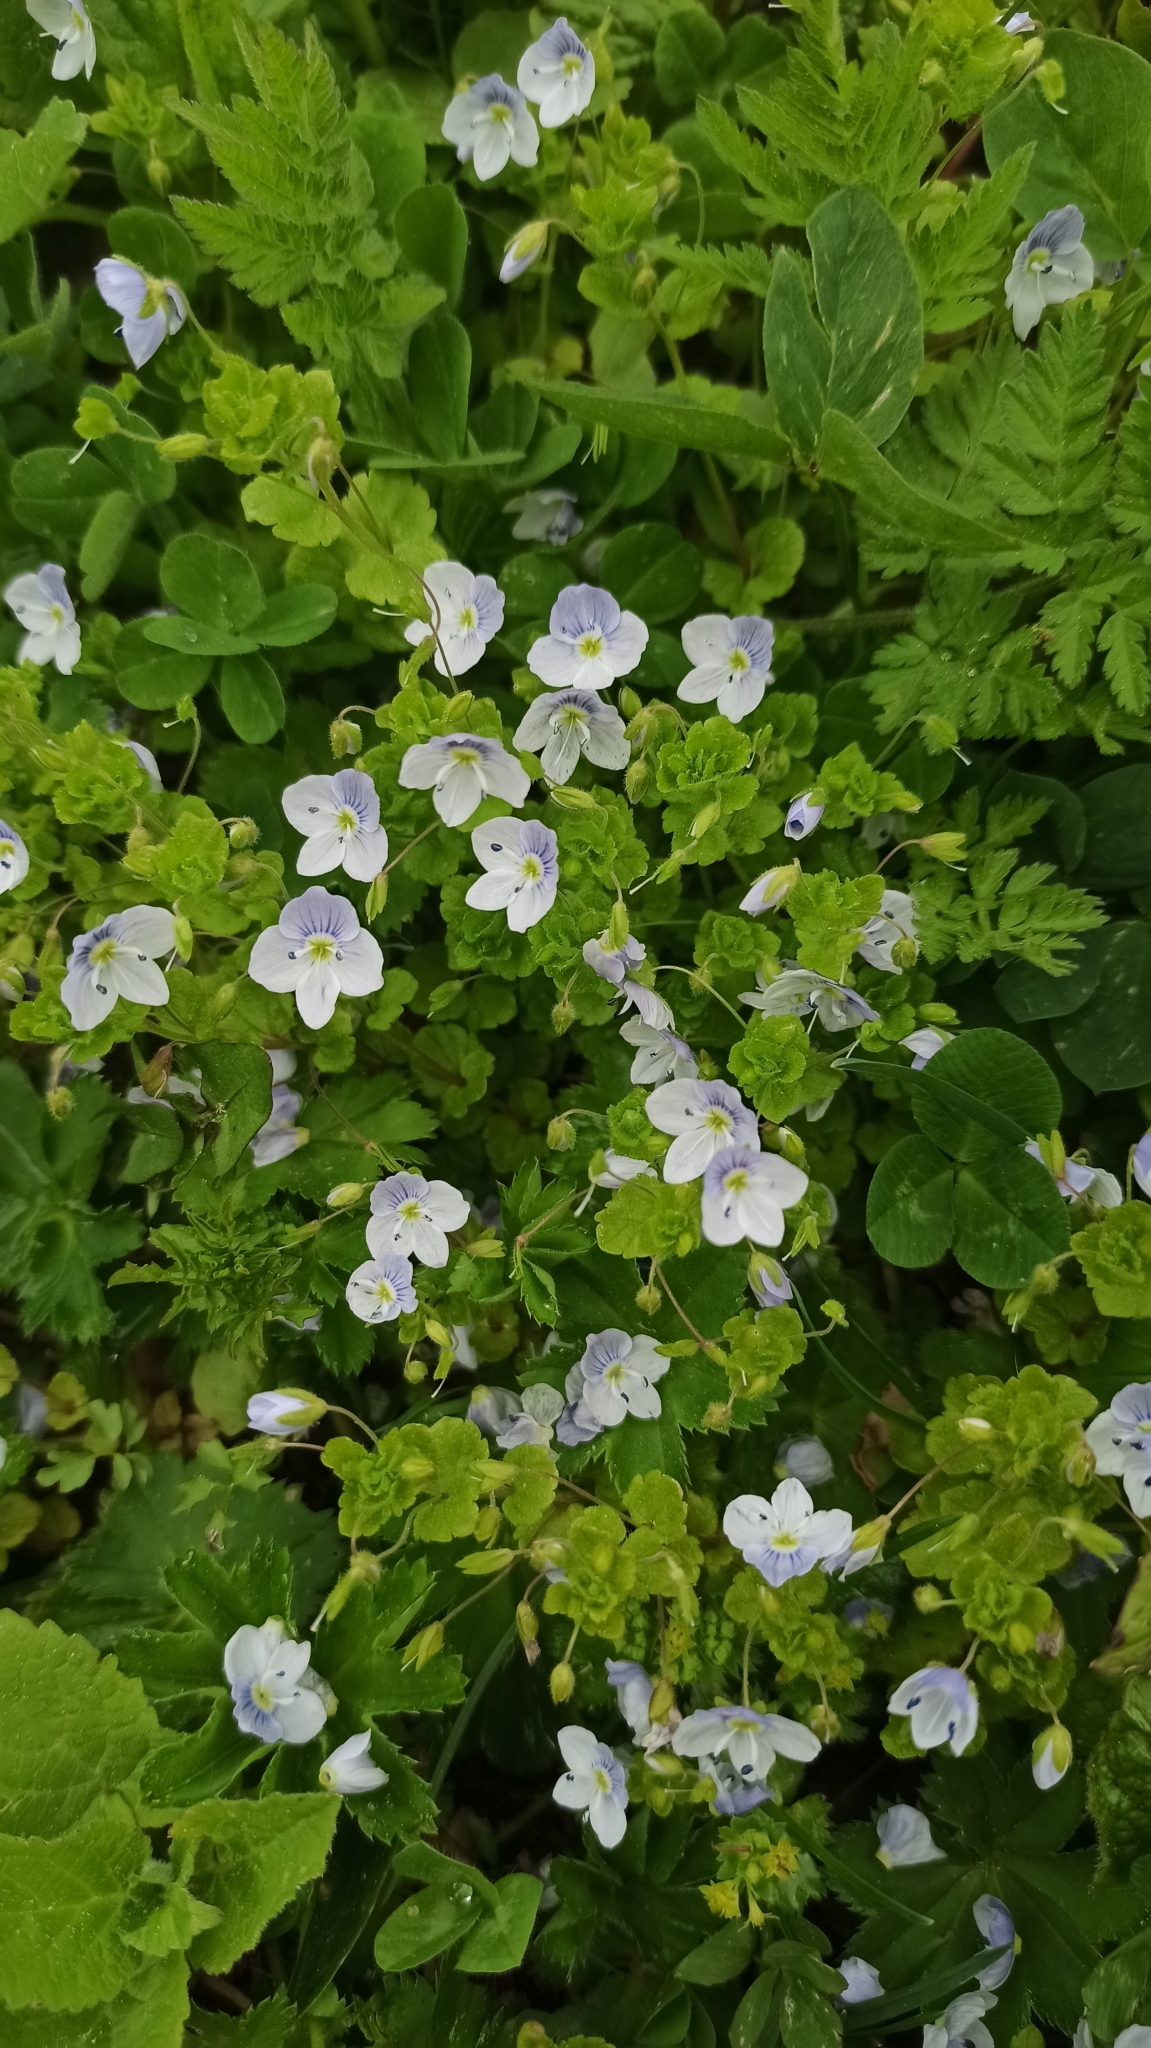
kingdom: Plantae
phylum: Tracheophyta
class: Magnoliopsida
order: Lamiales
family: Plantaginaceae
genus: Veronica
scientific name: Veronica filiformis
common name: Slender speedwell
